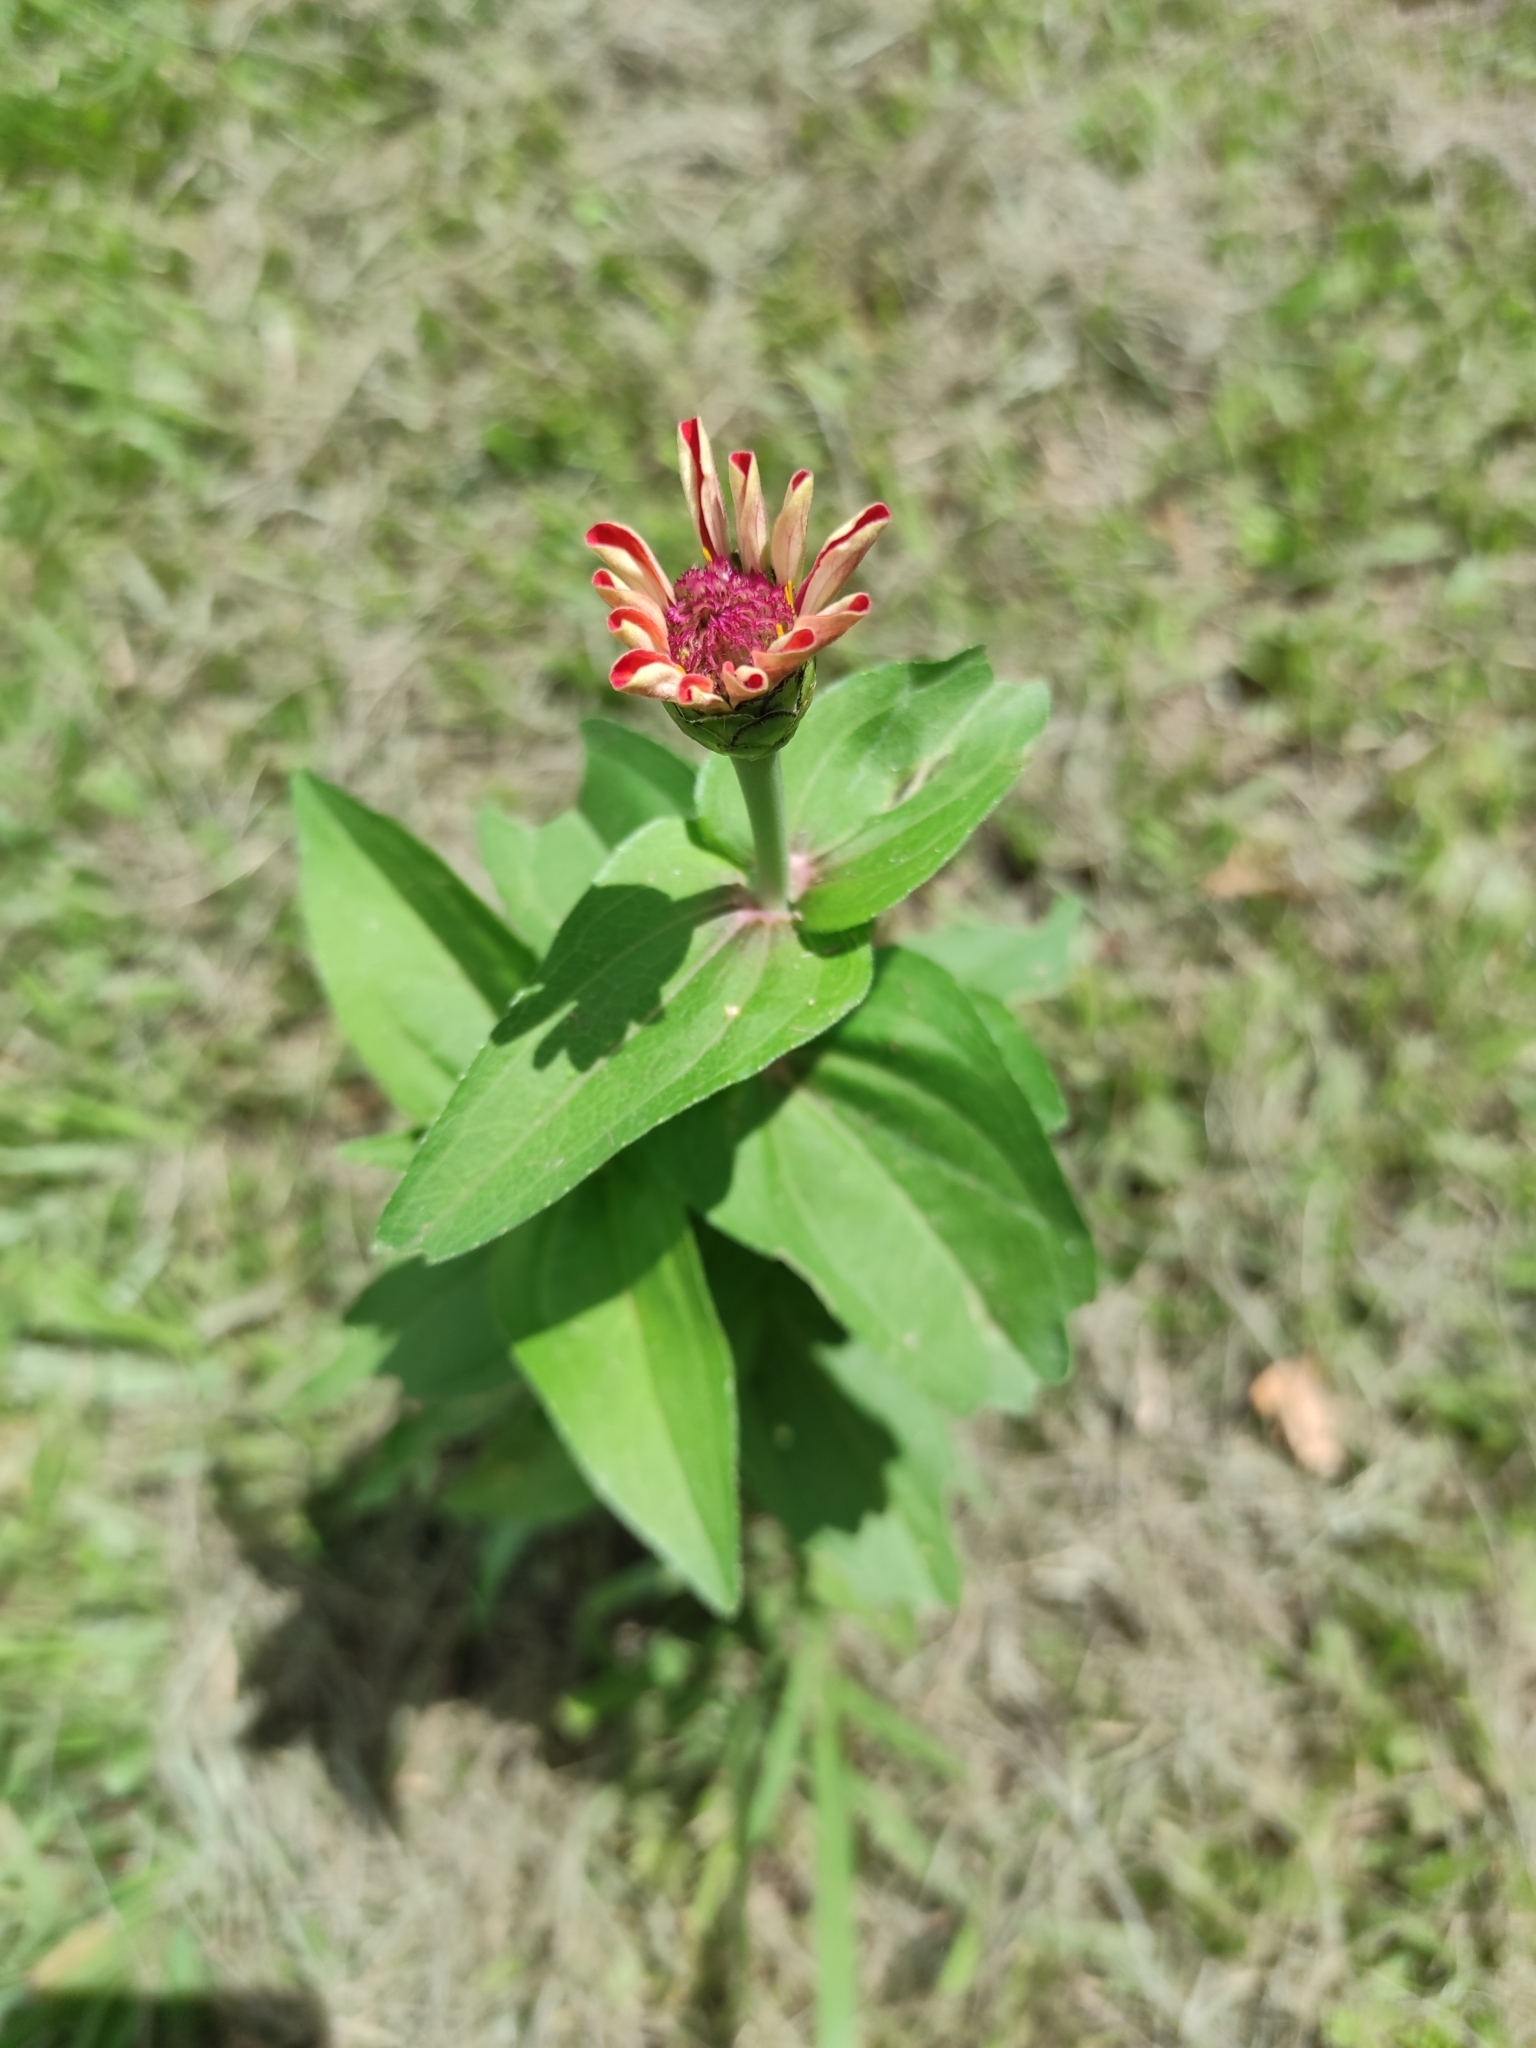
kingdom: Plantae
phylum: Tracheophyta
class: Magnoliopsida
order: Asterales
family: Asteraceae
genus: Zinnia
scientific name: Zinnia elegans
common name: Youth-and-age
